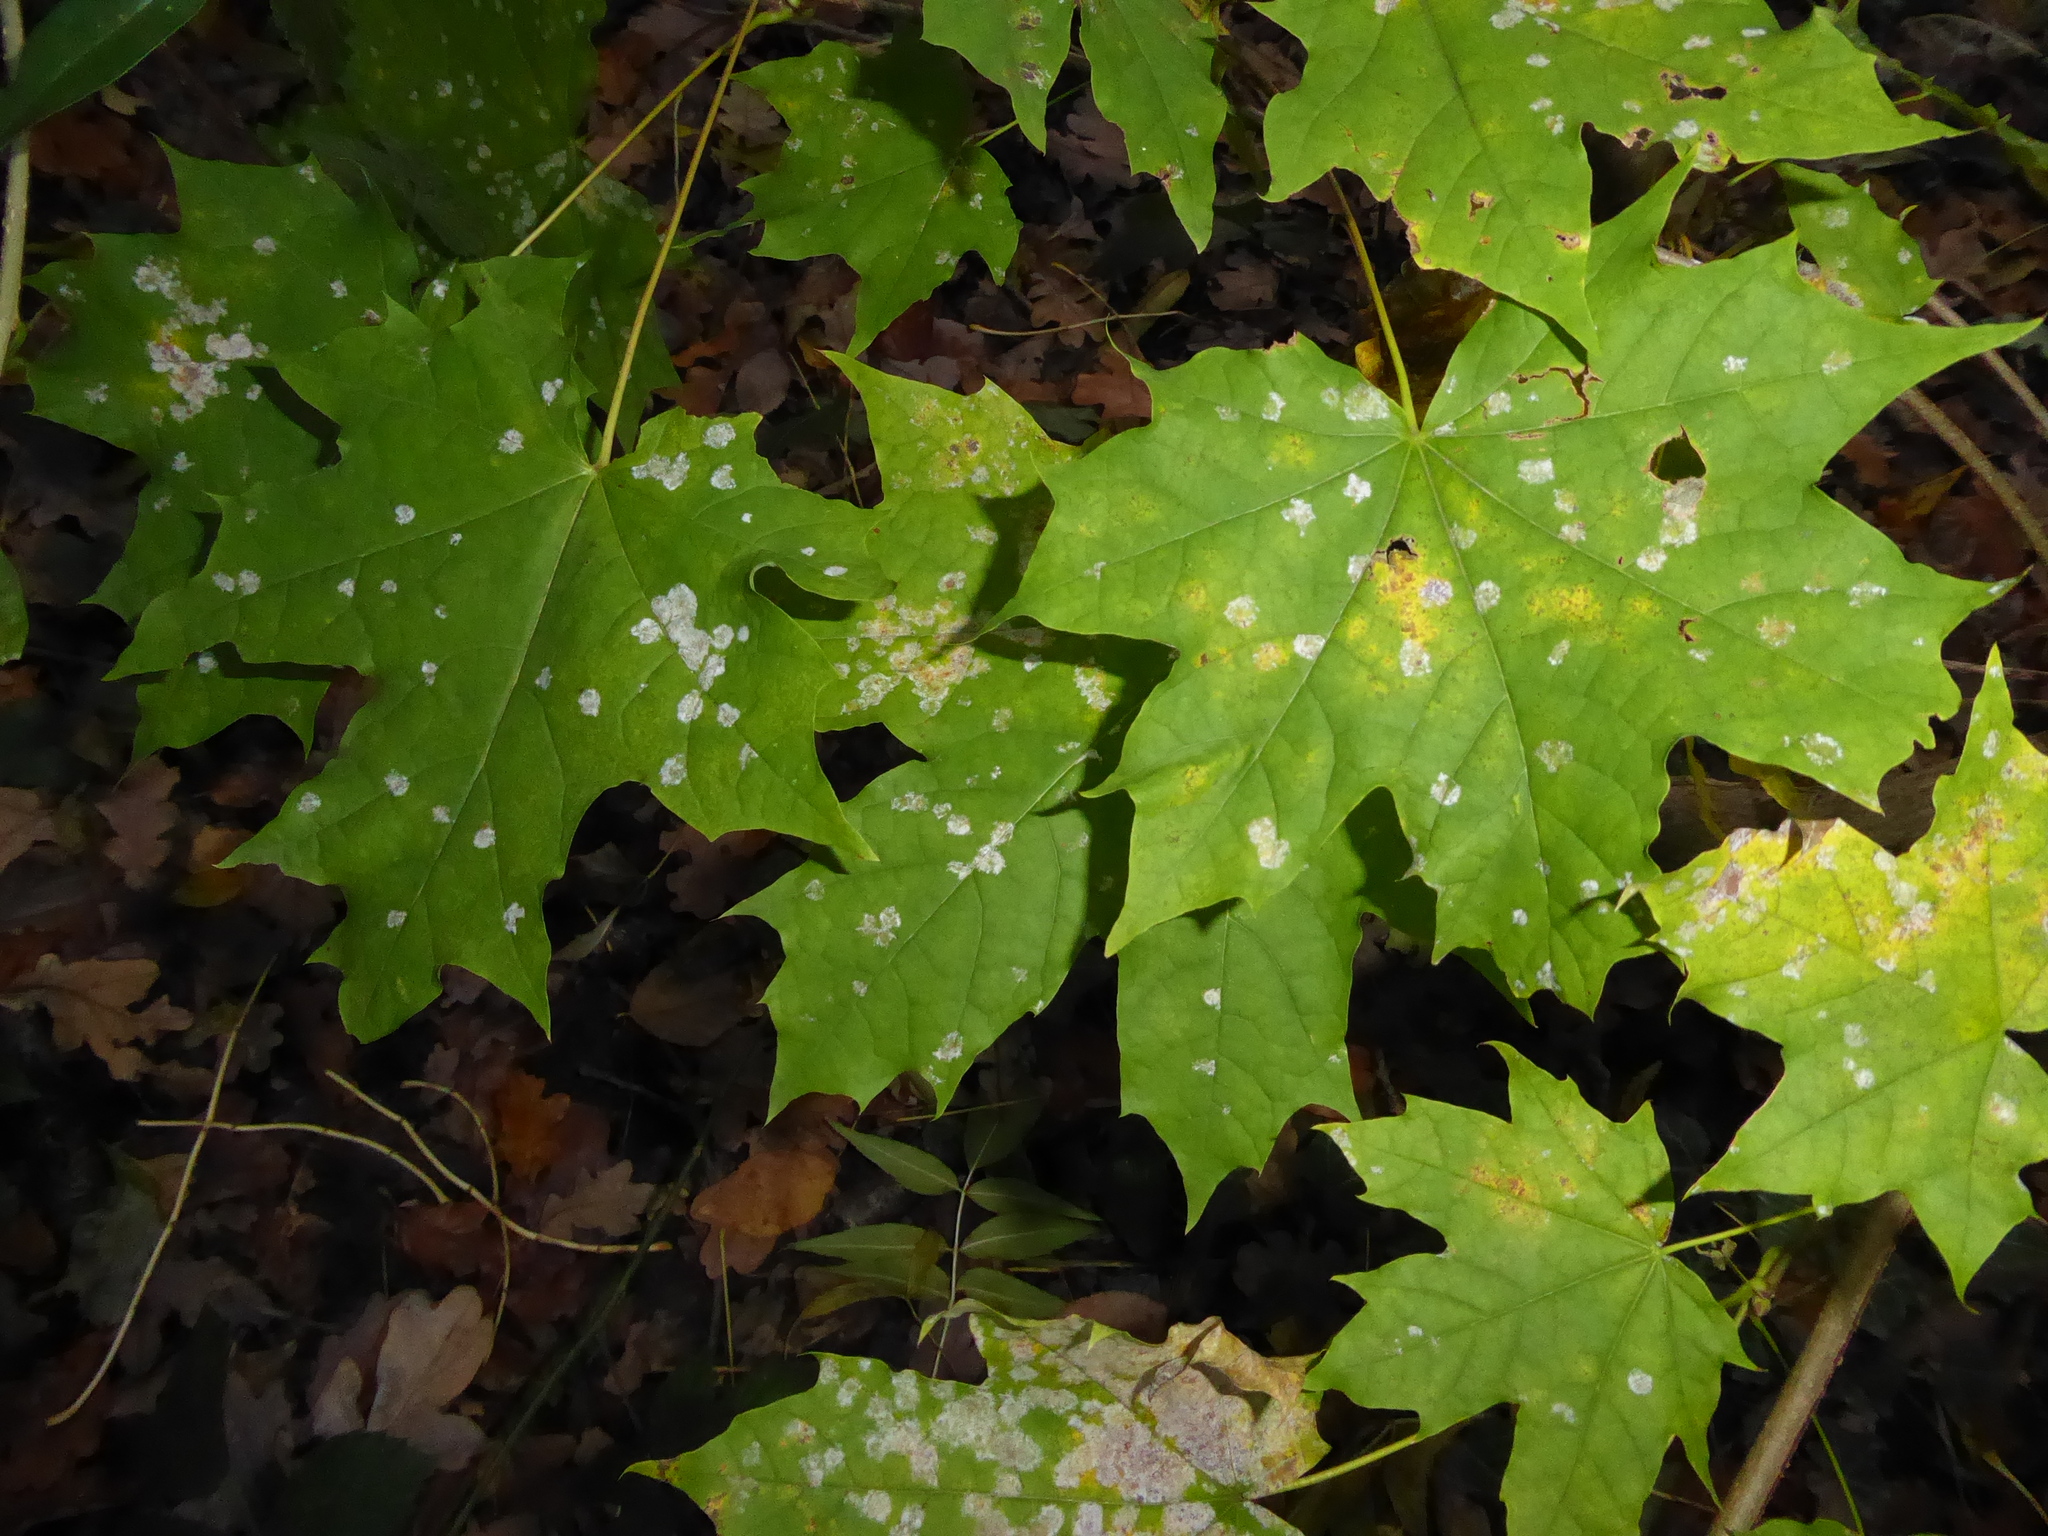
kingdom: Plantae
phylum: Tracheophyta
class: Magnoliopsida
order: Sapindales
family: Sapindaceae
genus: Acer
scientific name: Acer platanoides
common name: Norway maple
